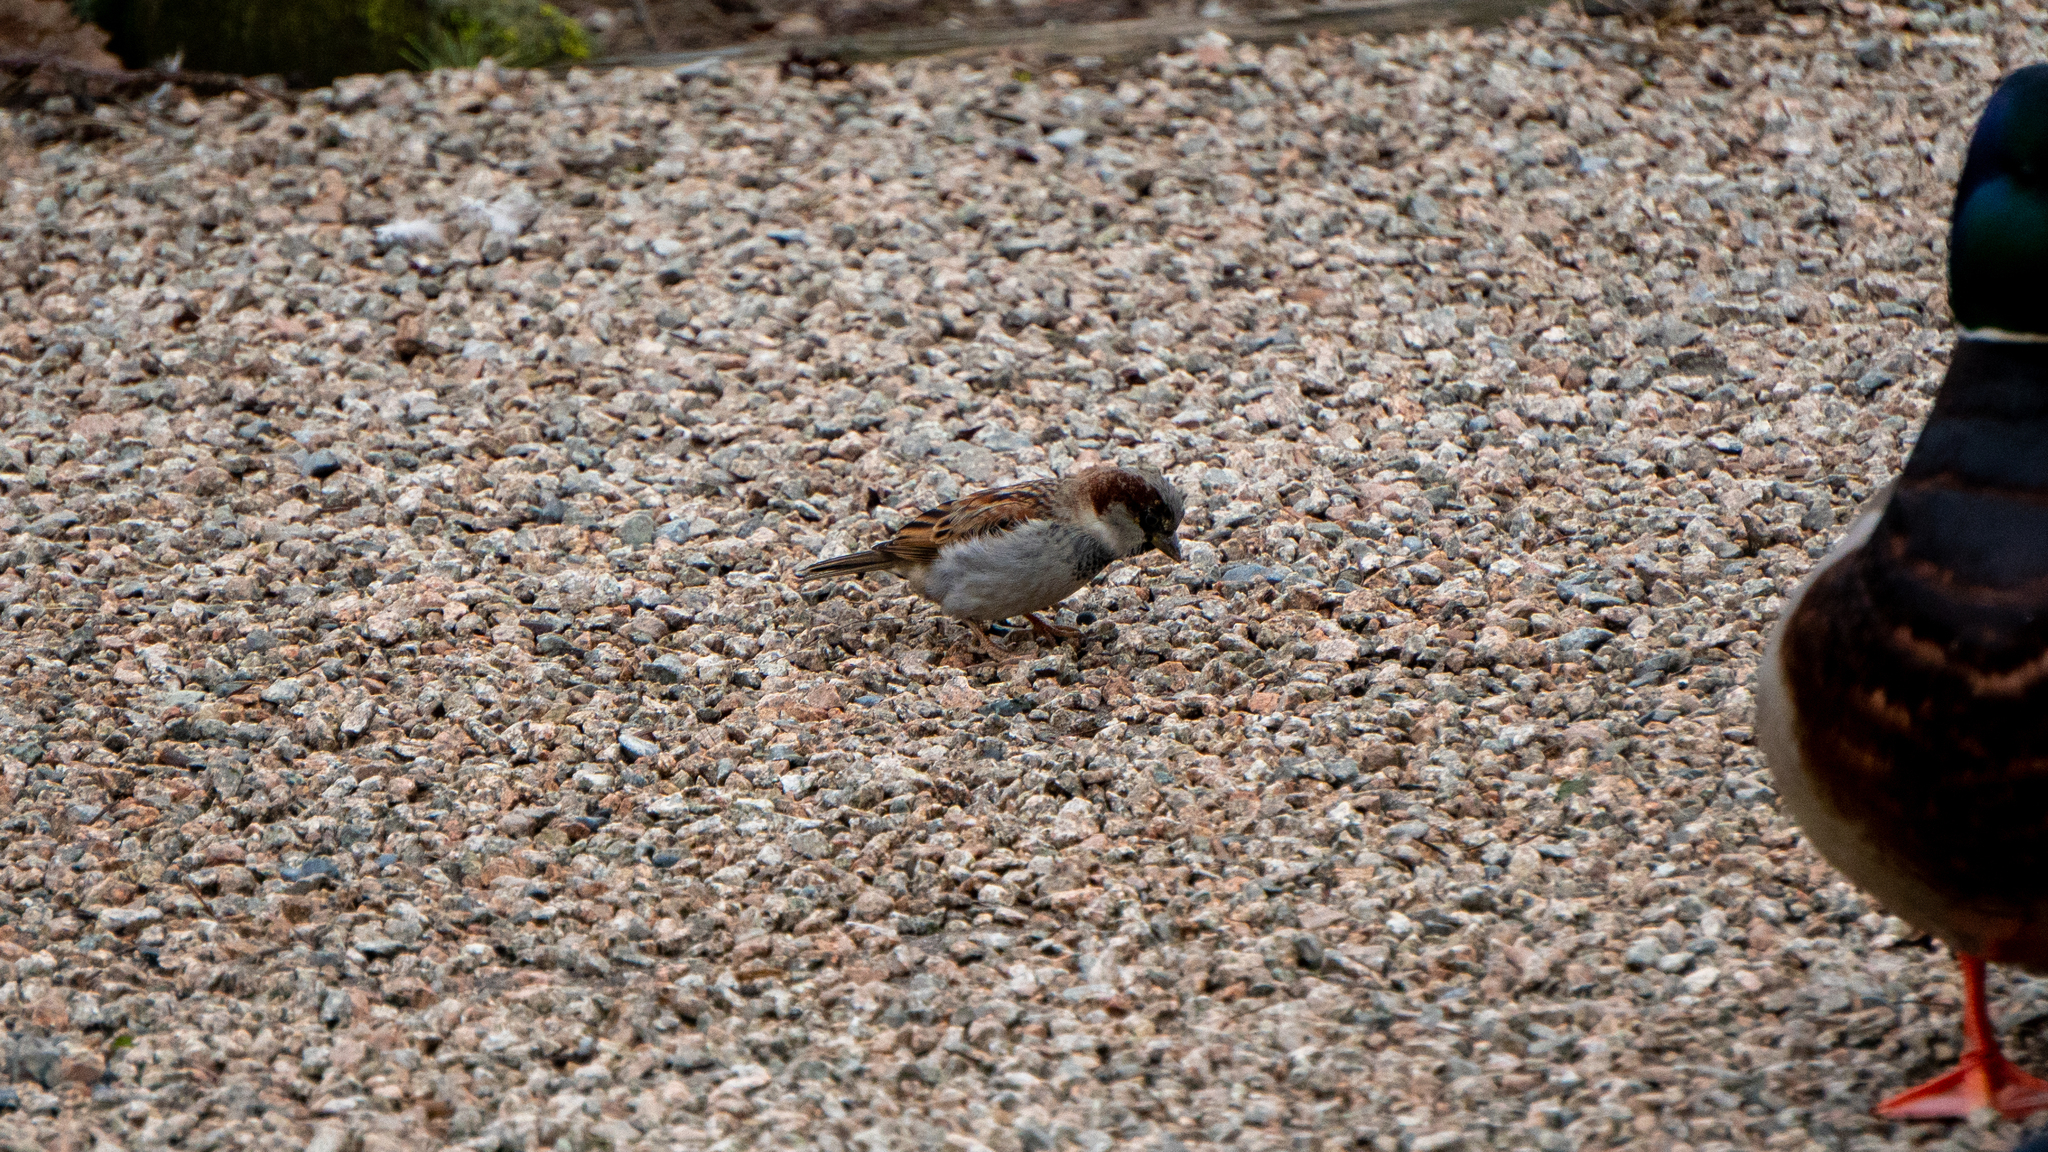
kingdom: Animalia
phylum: Chordata
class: Aves
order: Passeriformes
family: Passeridae
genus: Passer
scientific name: Passer domesticus
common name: House sparrow
